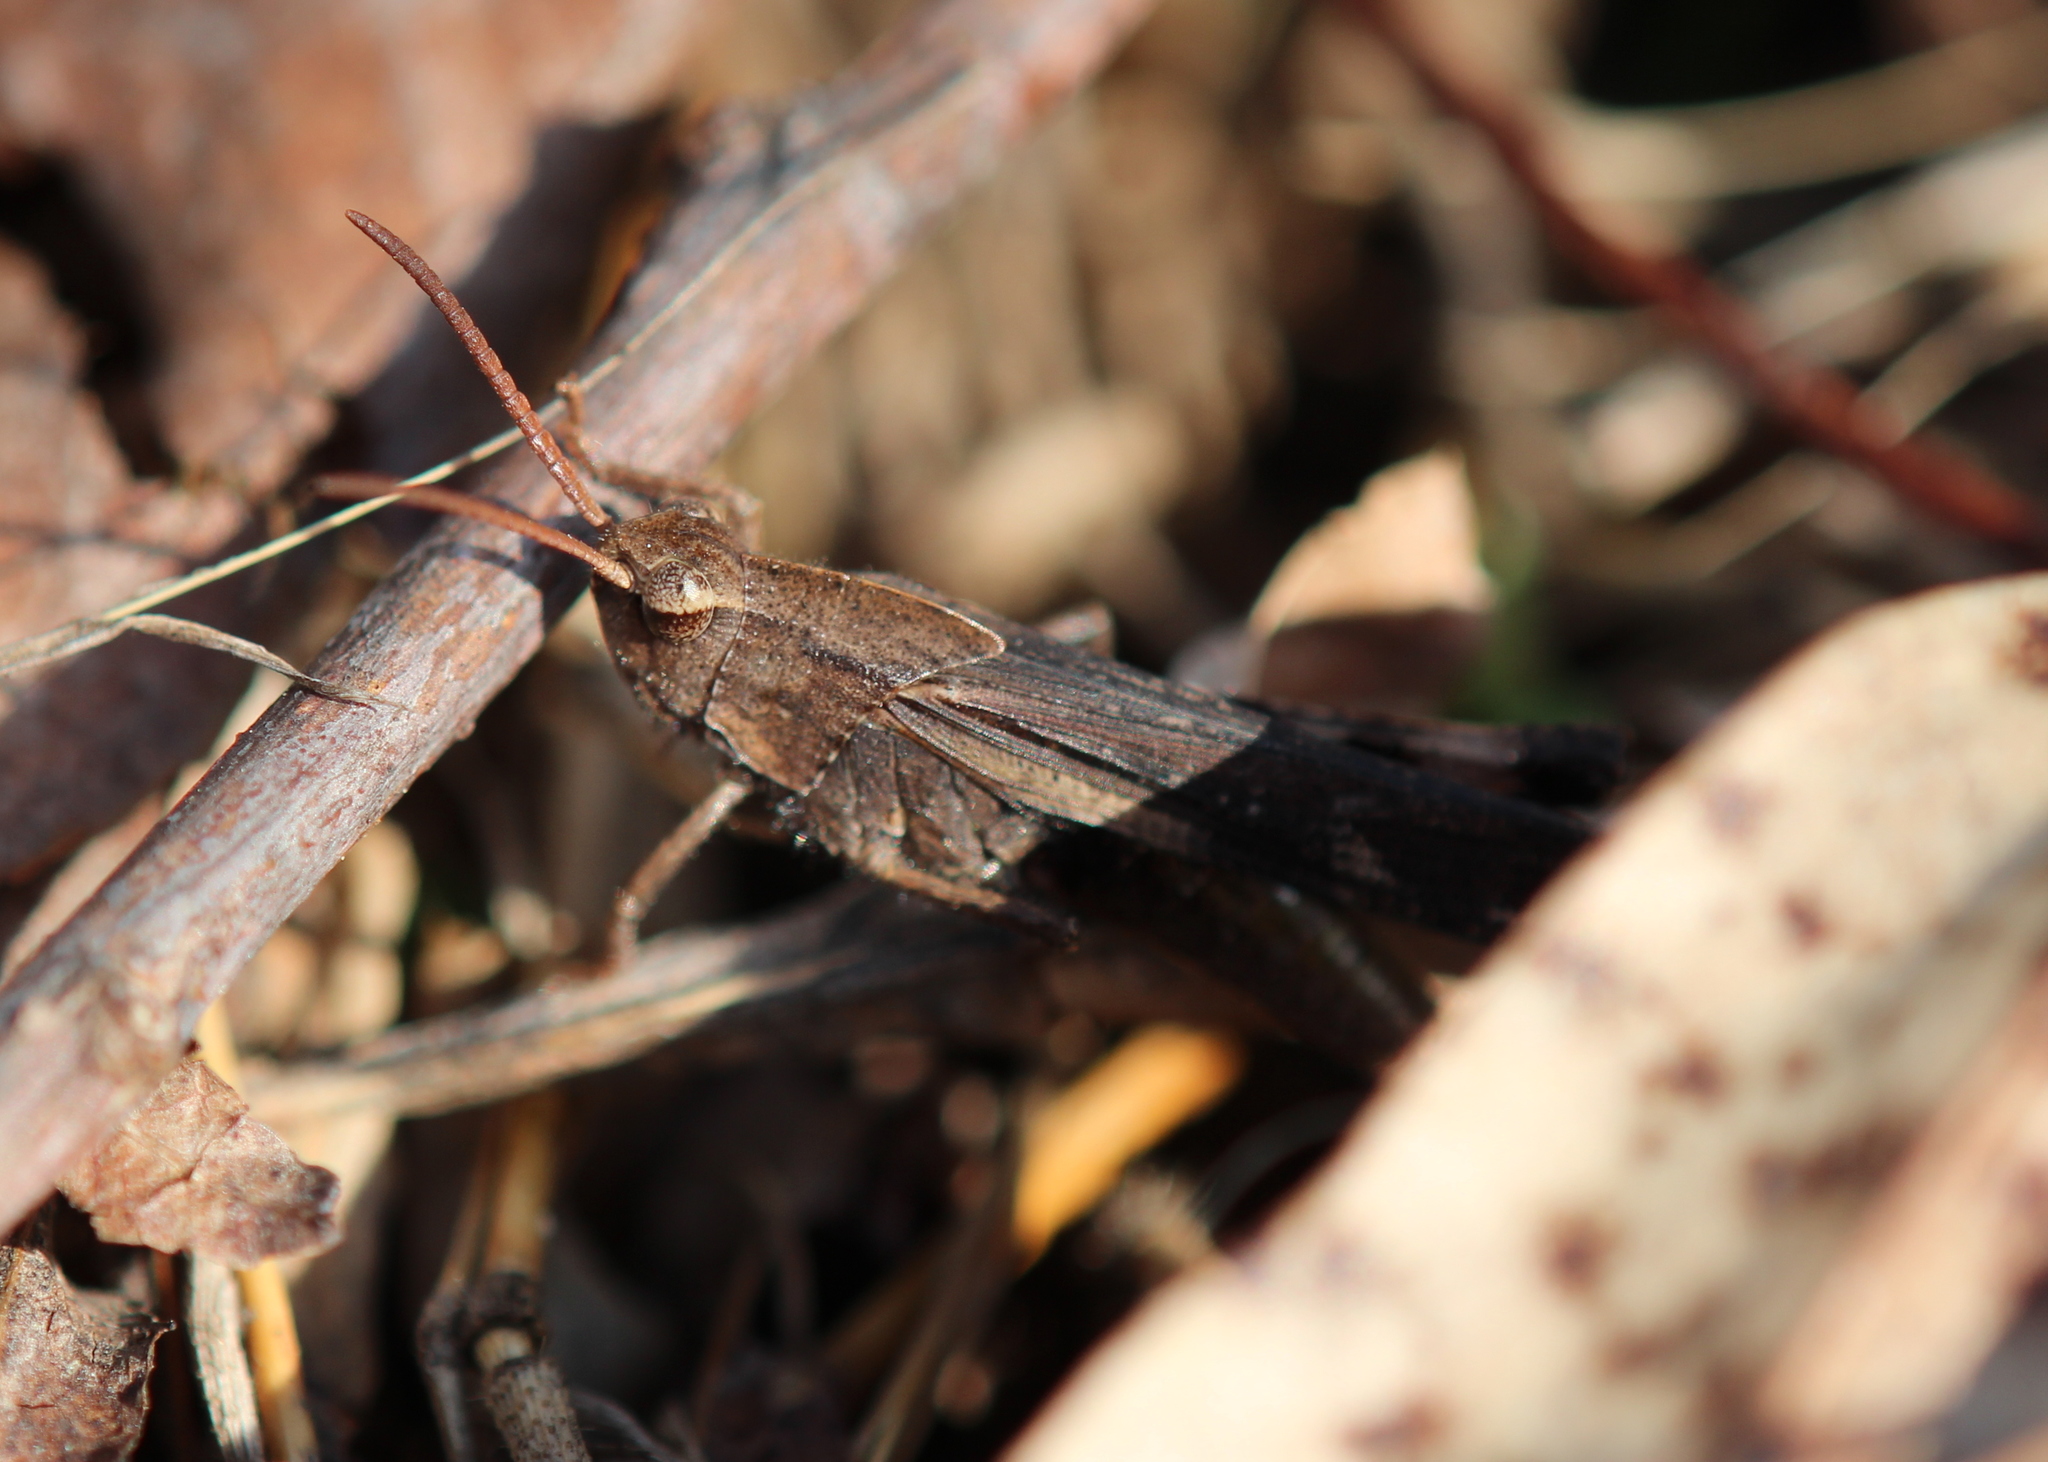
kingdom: Animalia
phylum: Arthropoda
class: Insecta
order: Orthoptera
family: Acrididae
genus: Chortophaga
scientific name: Chortophaga viridifasciata
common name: Green-striped grasshopper
